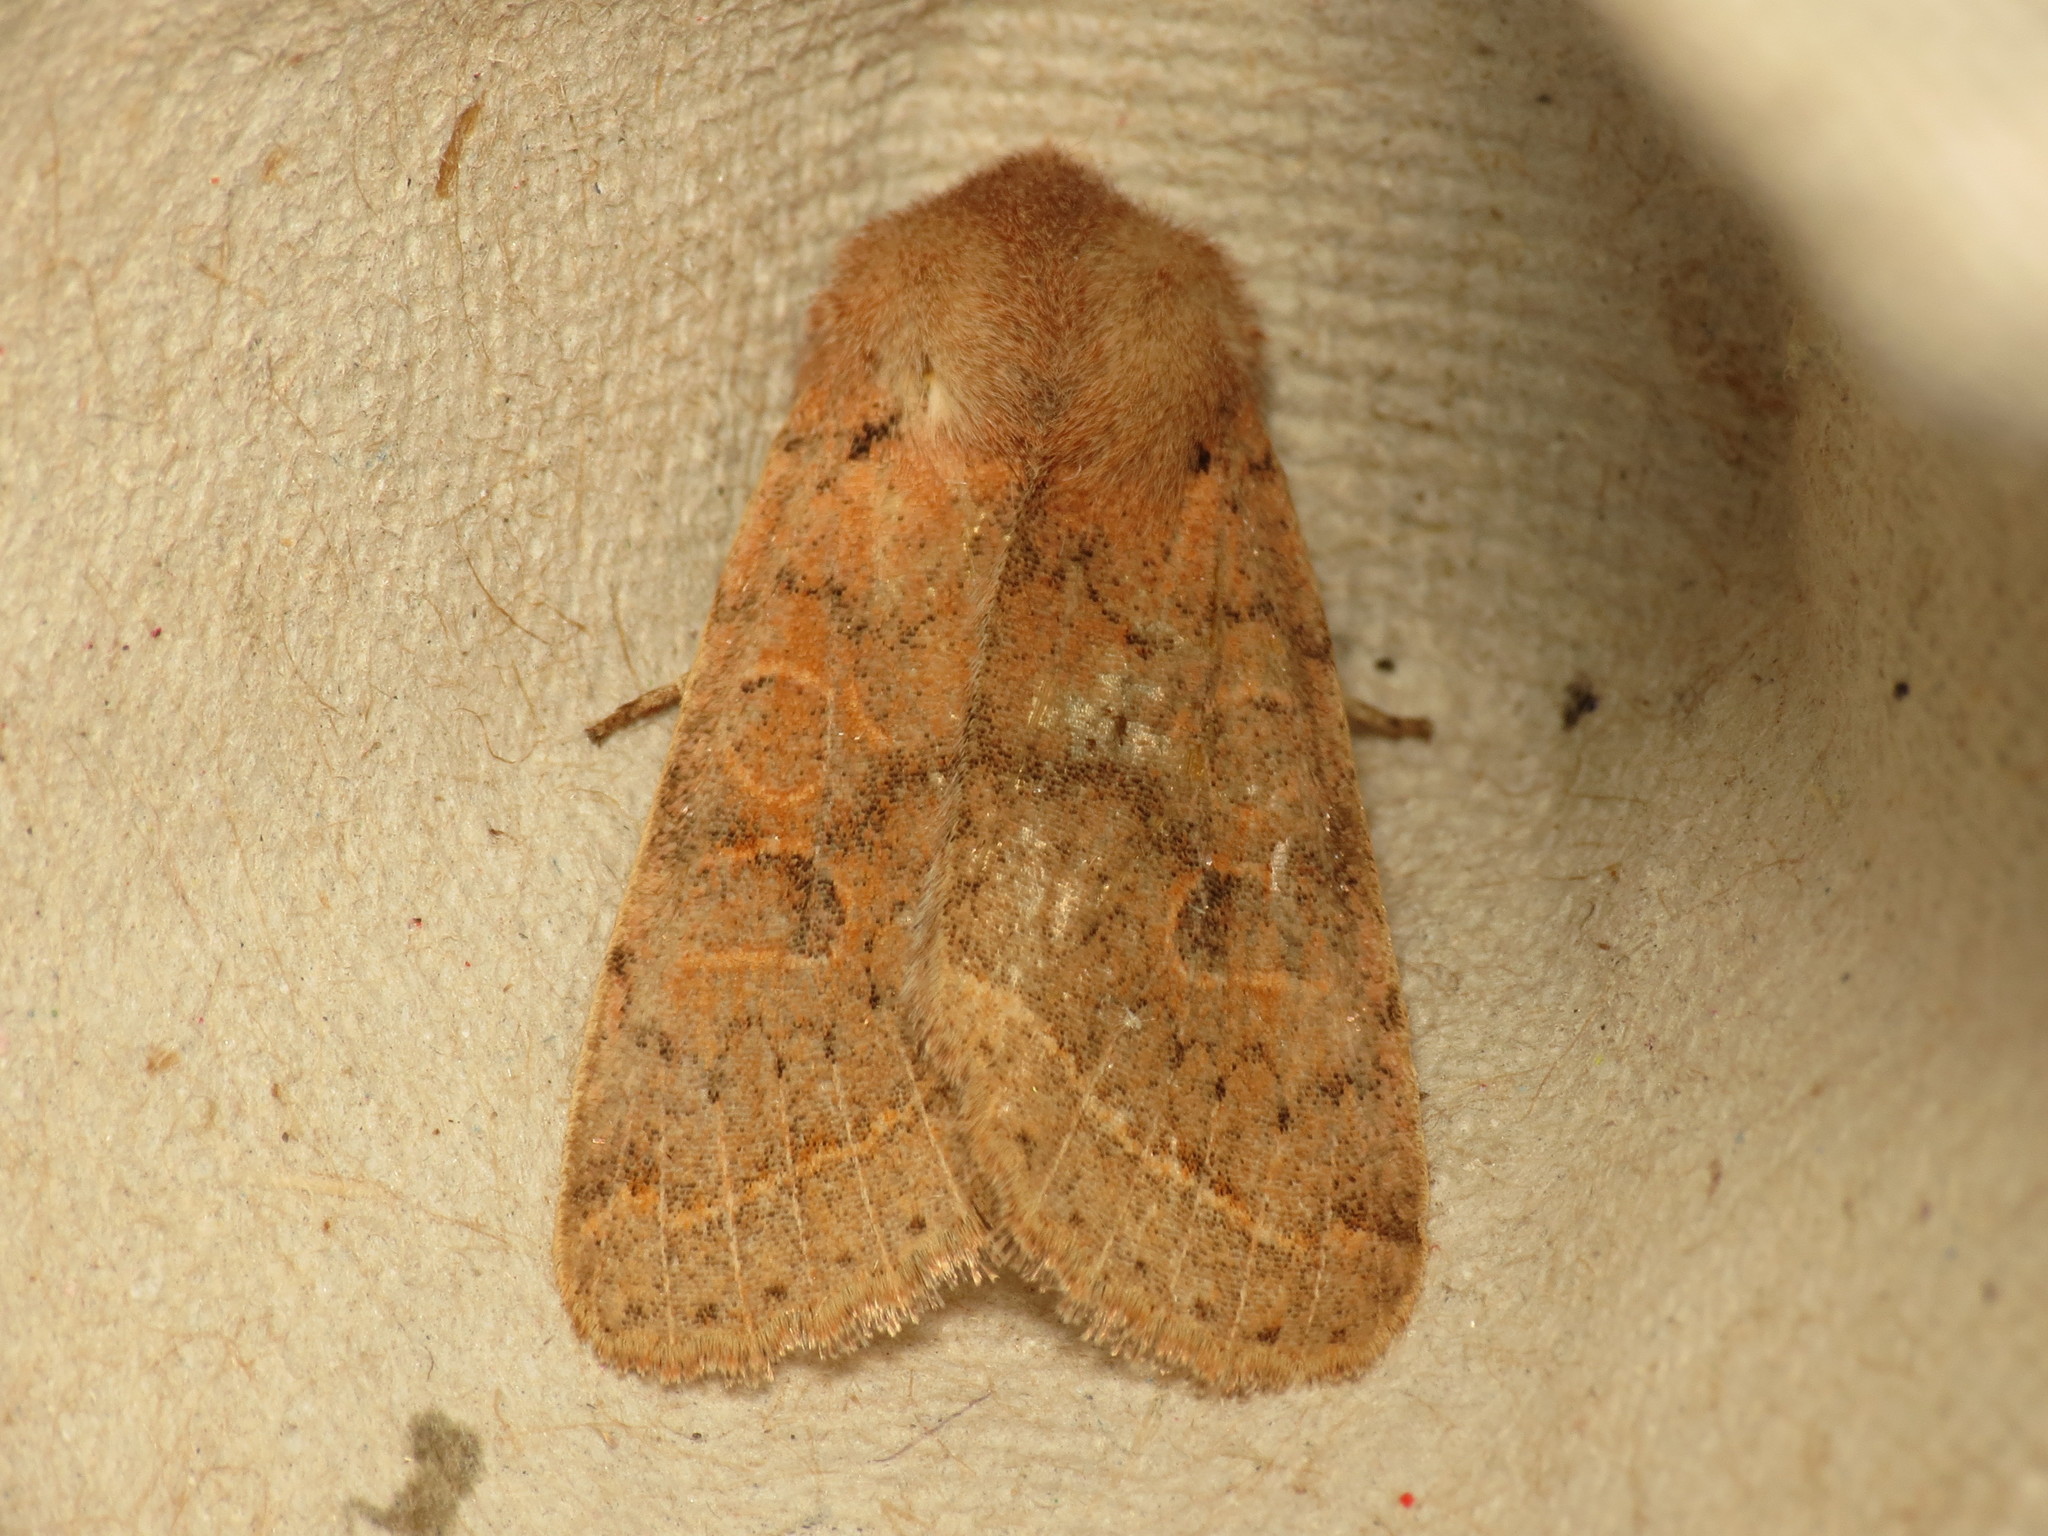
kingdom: Animalia
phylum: Arthropoda
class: Insecta
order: Lepidoptera
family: Noctuidae
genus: Orthosia
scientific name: Orthosia cerasi
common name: Common quaker
